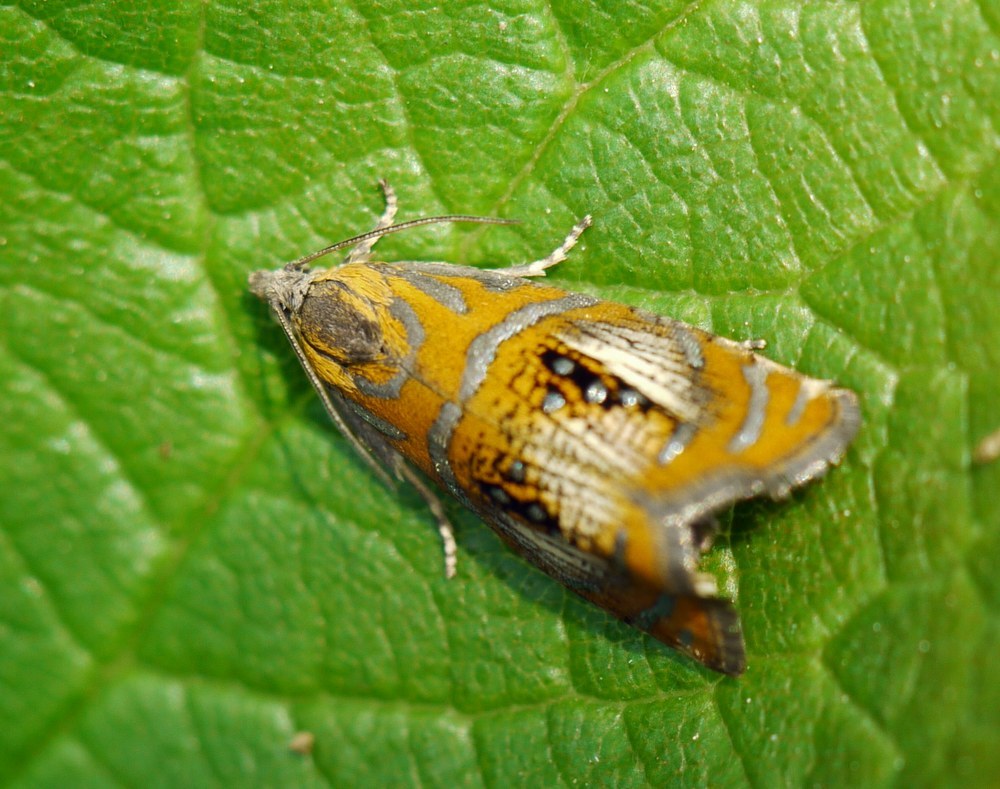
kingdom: Animalia
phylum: Arthropoda
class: Insecta
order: Lepidoptera
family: Tortricidae
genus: Olethreutes
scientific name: Olethreutes arcuella
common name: Arched marble
